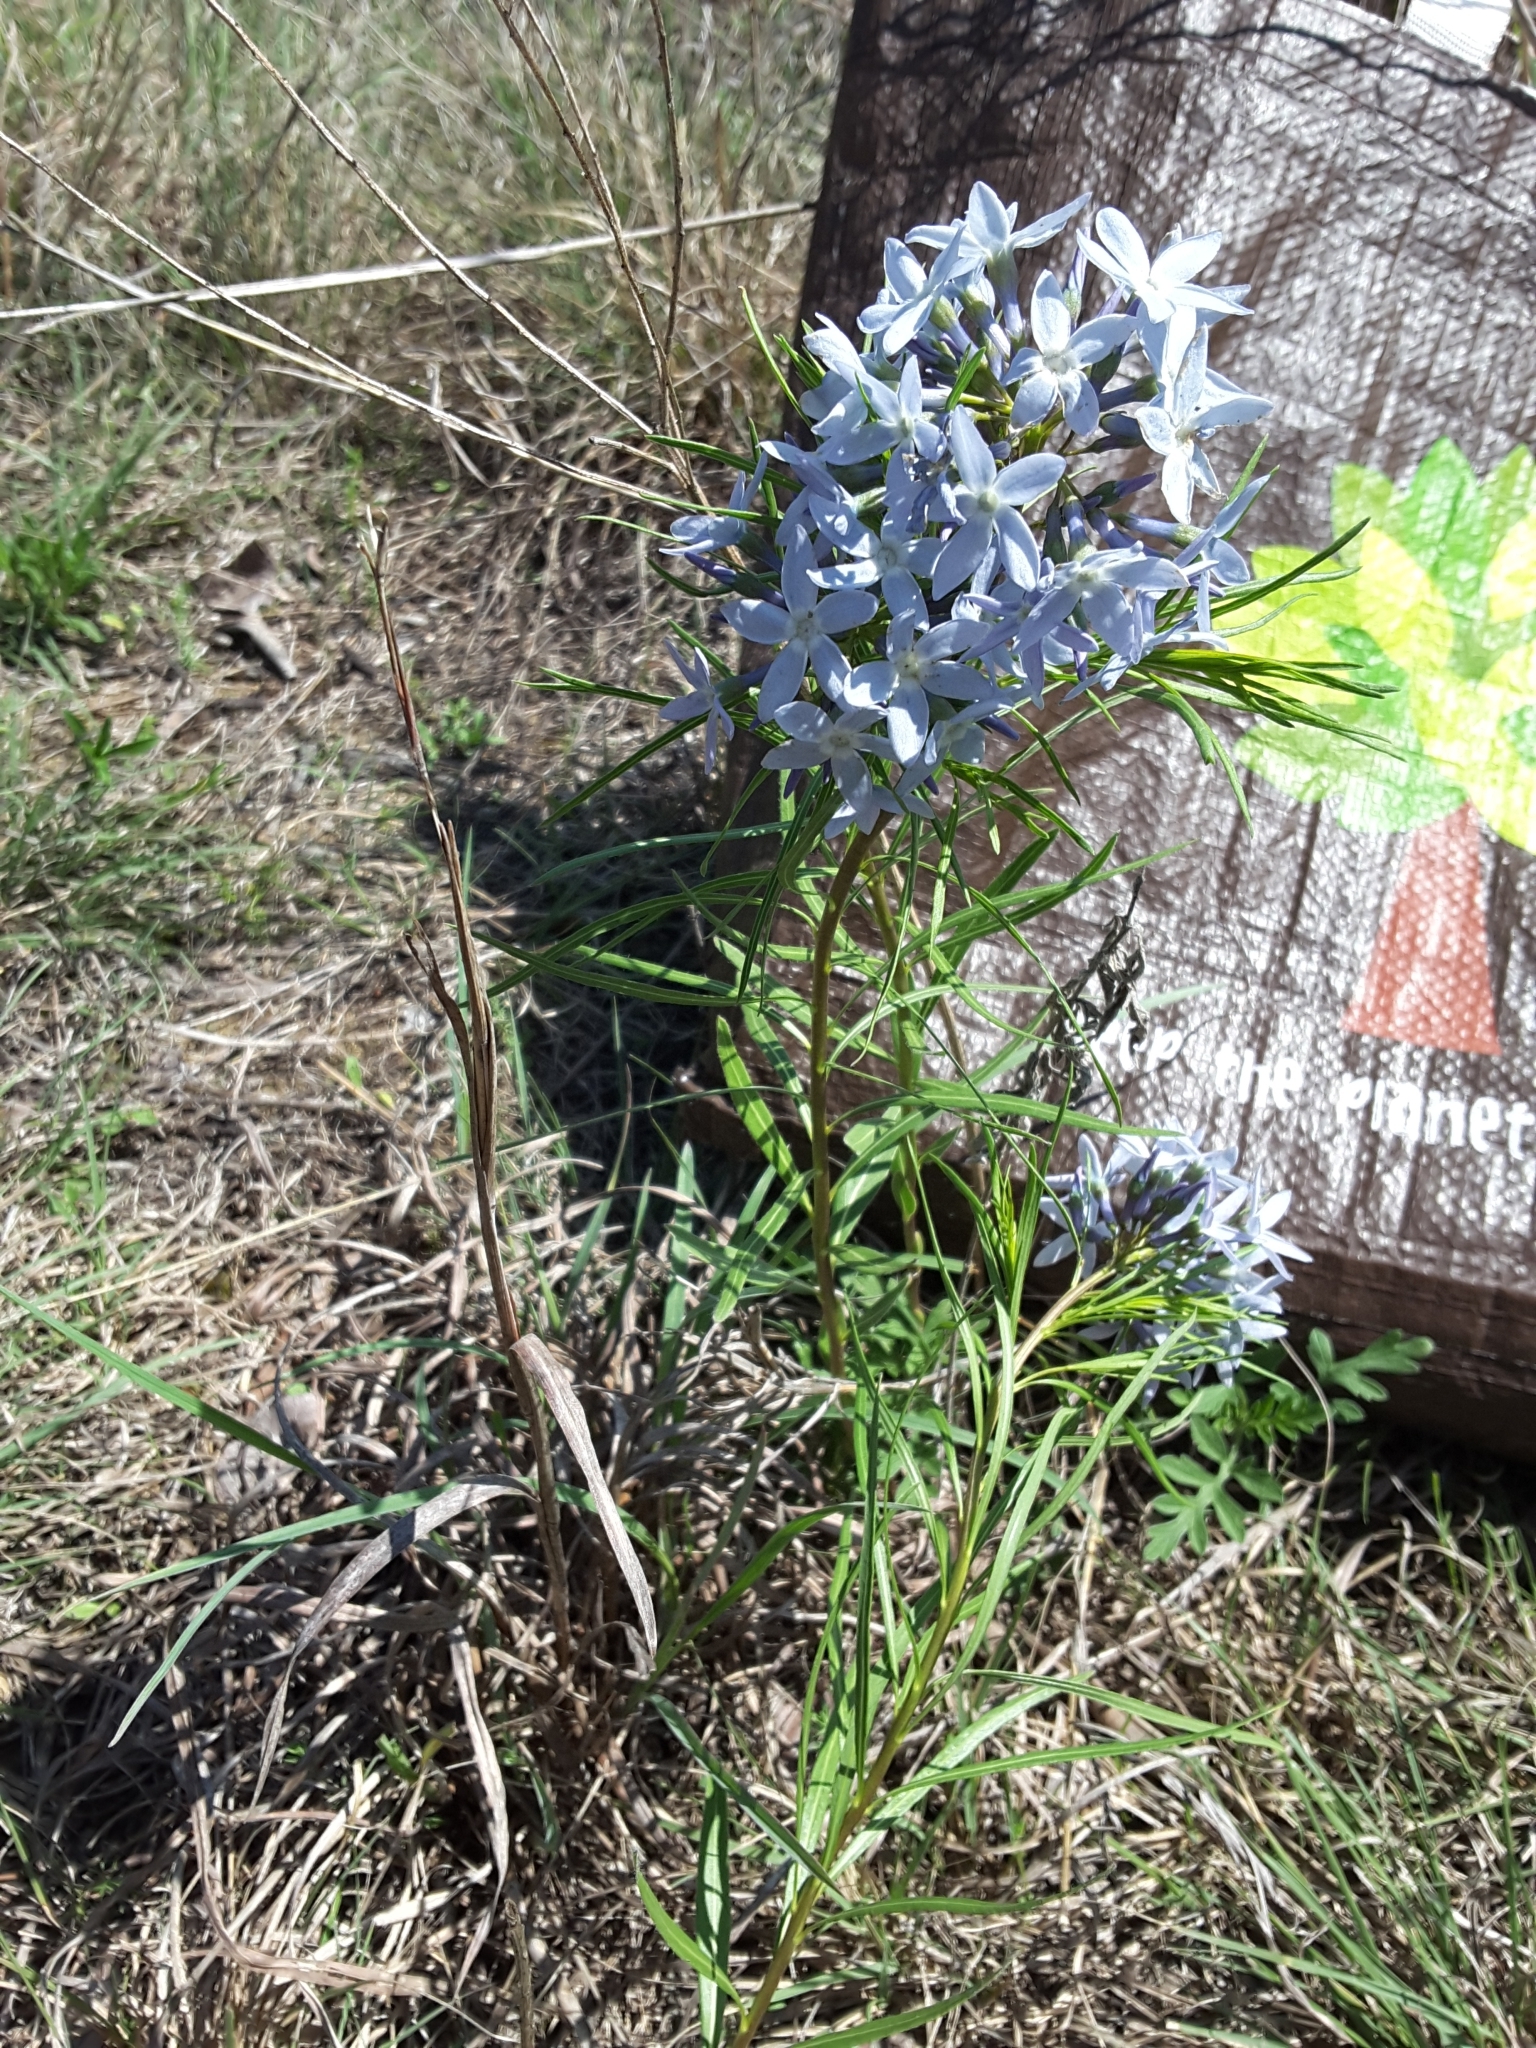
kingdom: Plantae
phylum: Tracheophyta
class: Magnoliopsida
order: Gentianales
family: Apocynaceae
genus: Amsonia
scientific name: Amsonia ciliata
